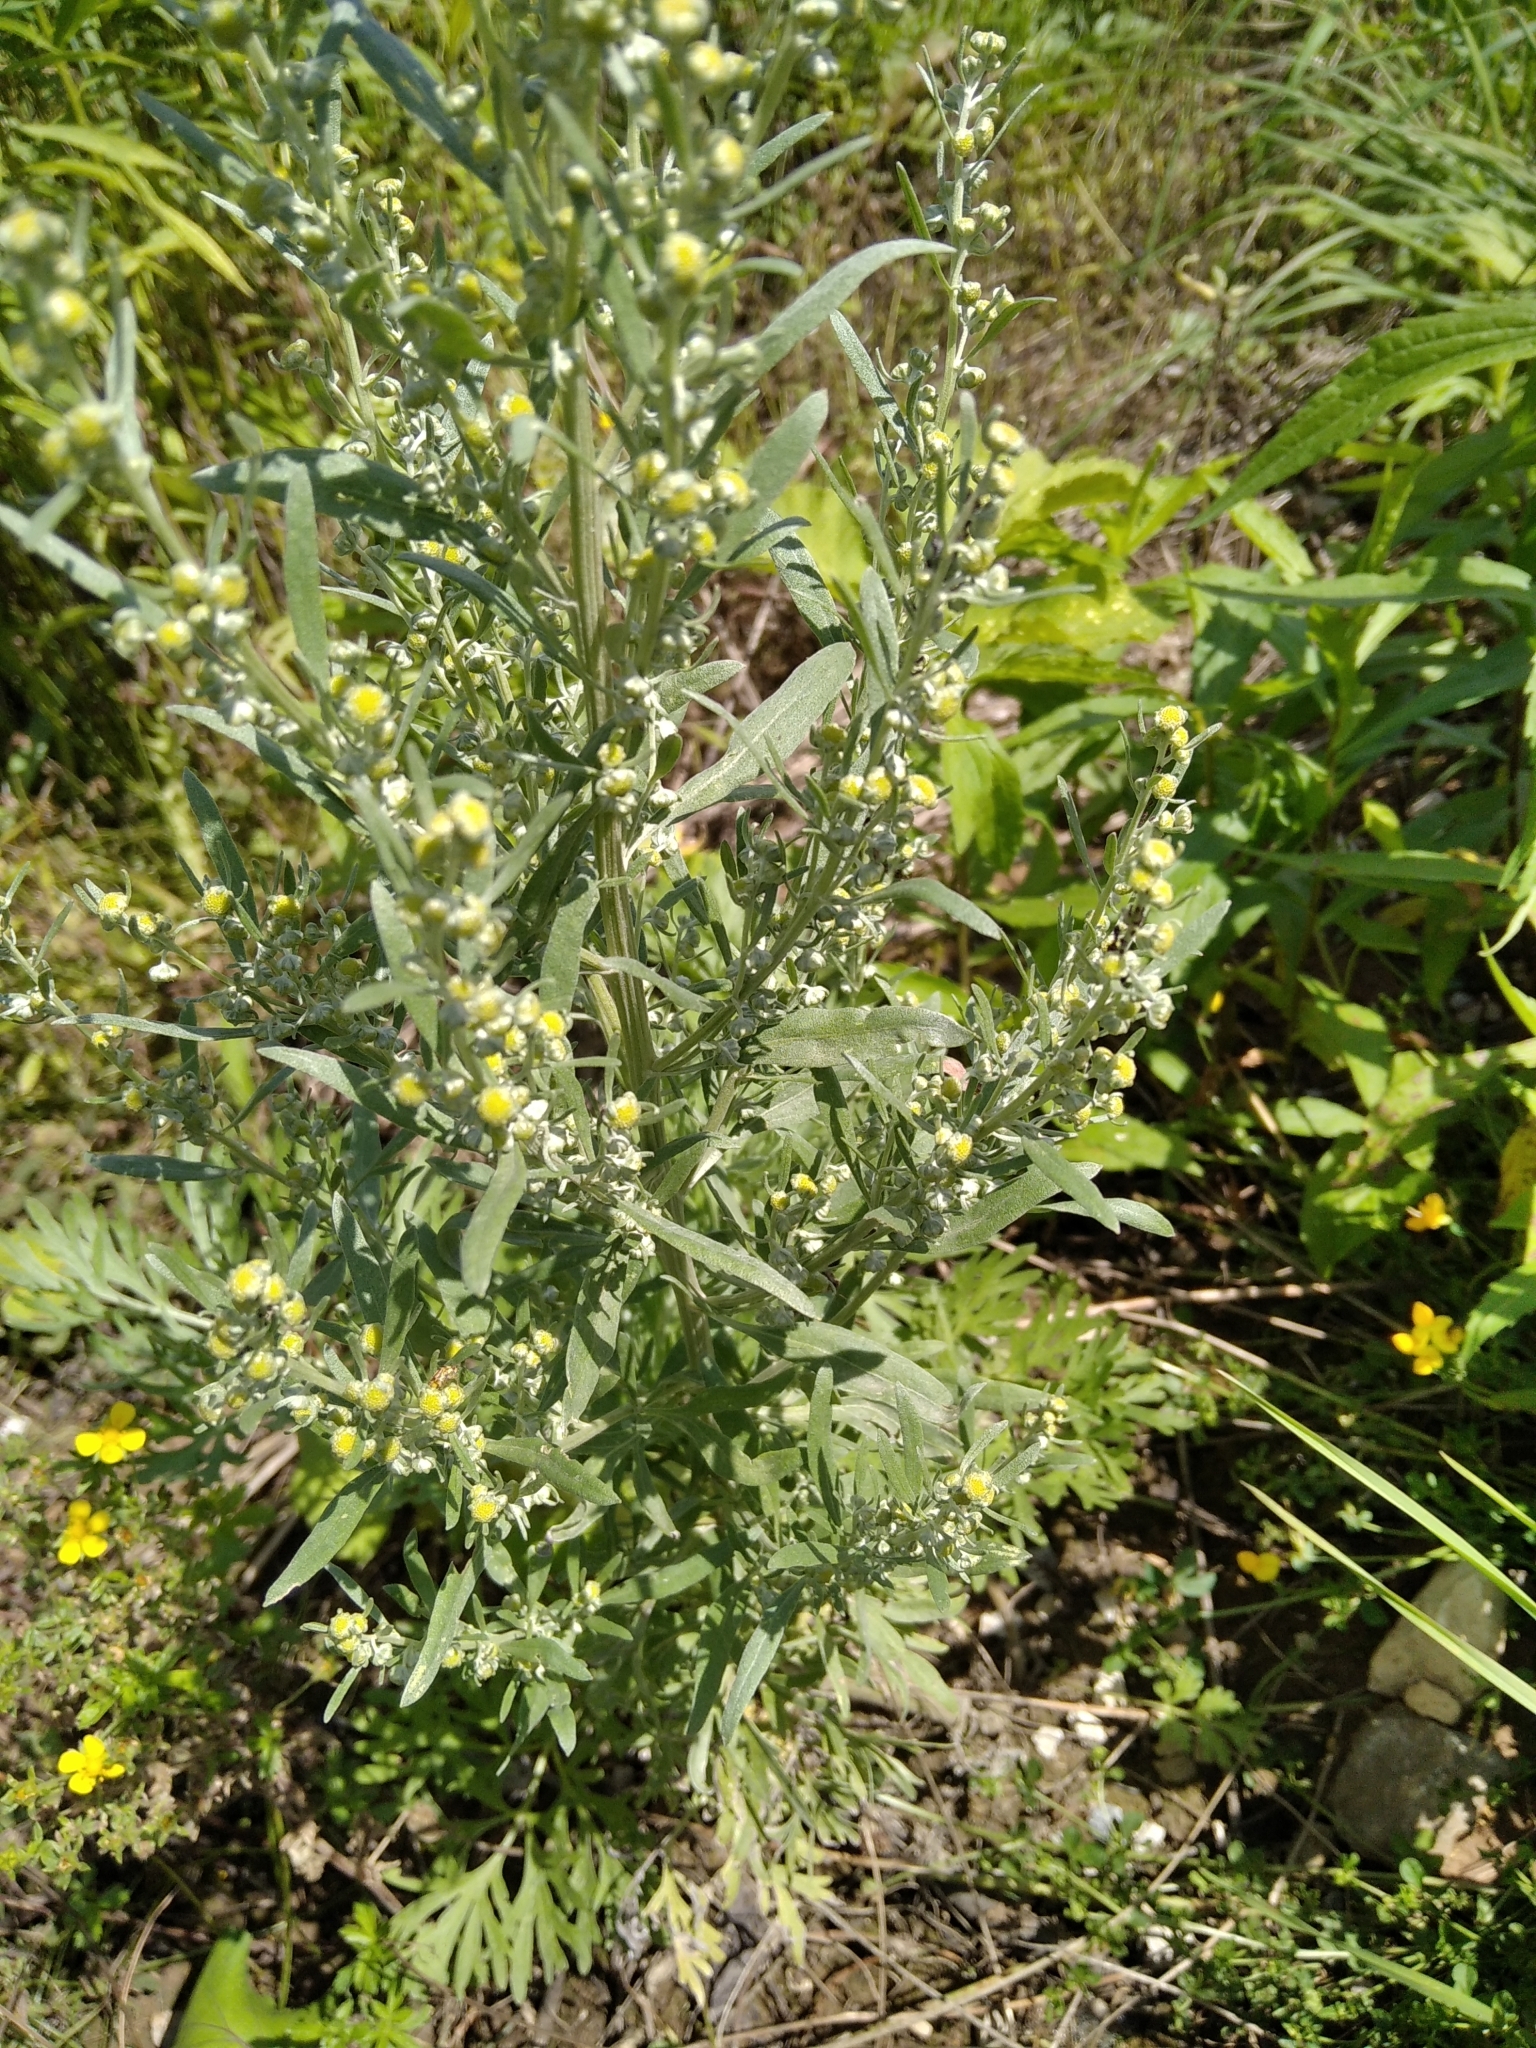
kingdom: Plantae
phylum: Tracheophyta
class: Magnoliopsida
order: Asterales
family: Asteraceae
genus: Artemisia
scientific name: Artemisia absinthium
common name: Wormwood
